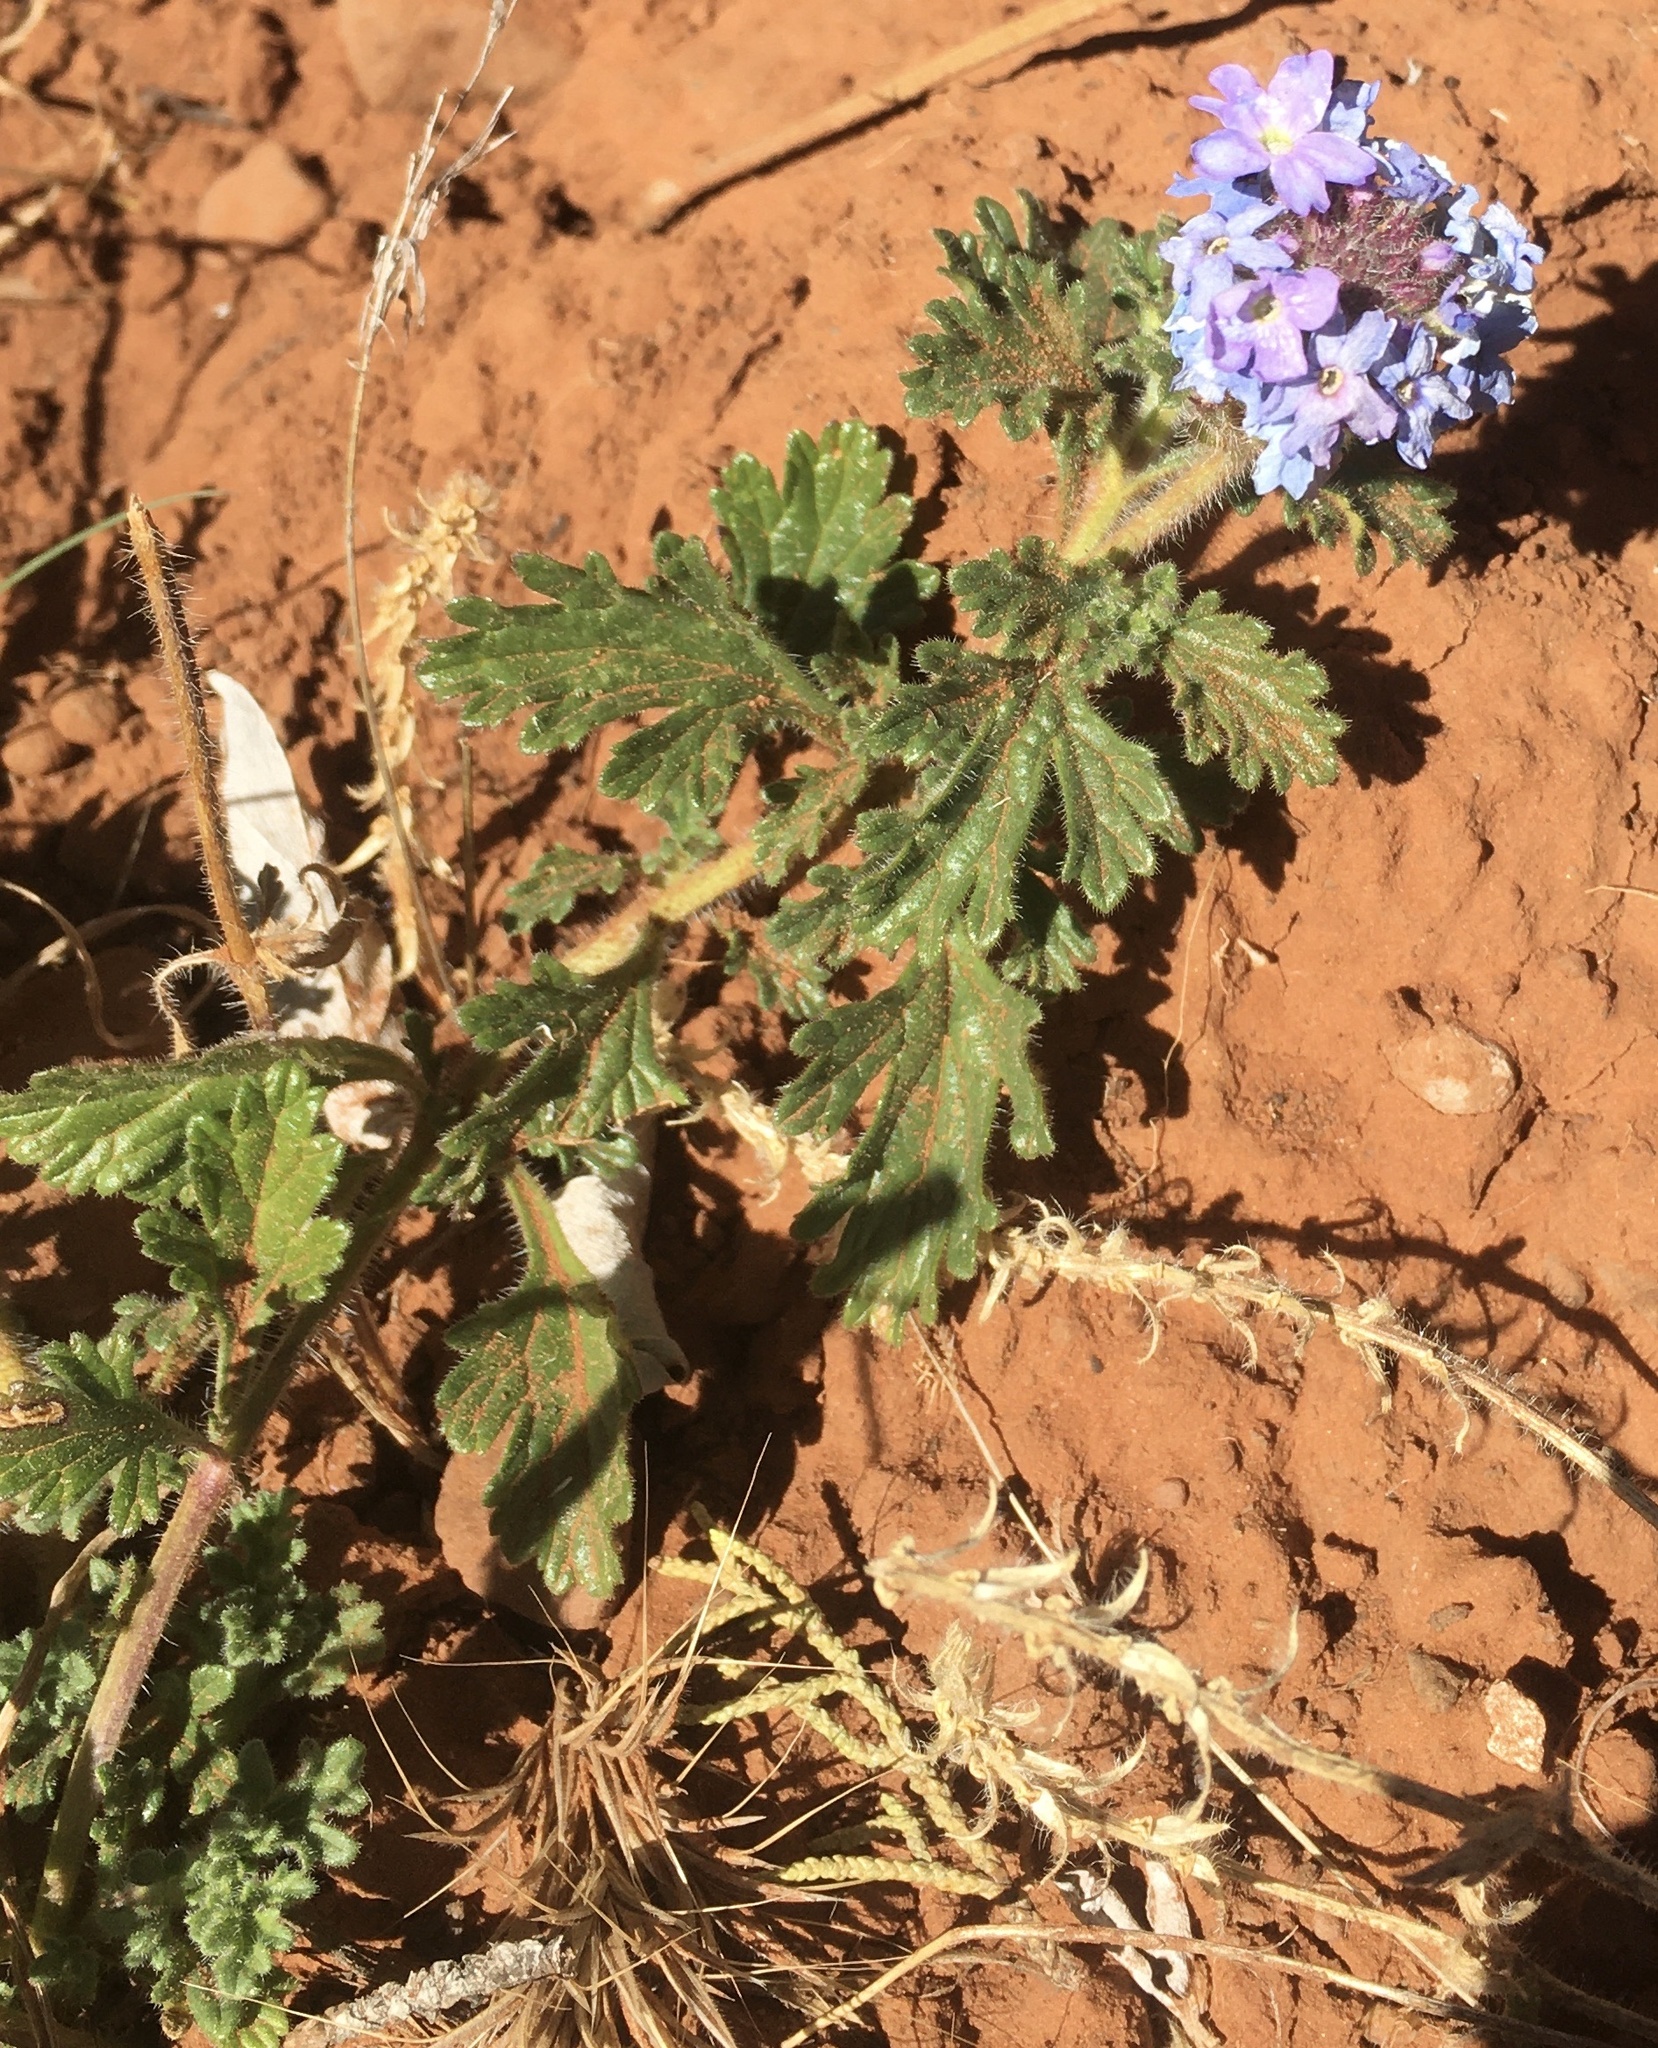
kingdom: Plantae
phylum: Tracheophyta
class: Magnoliopsida
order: Lamiales
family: Verbenaceae
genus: Verbena
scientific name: Verbena gooddingii
